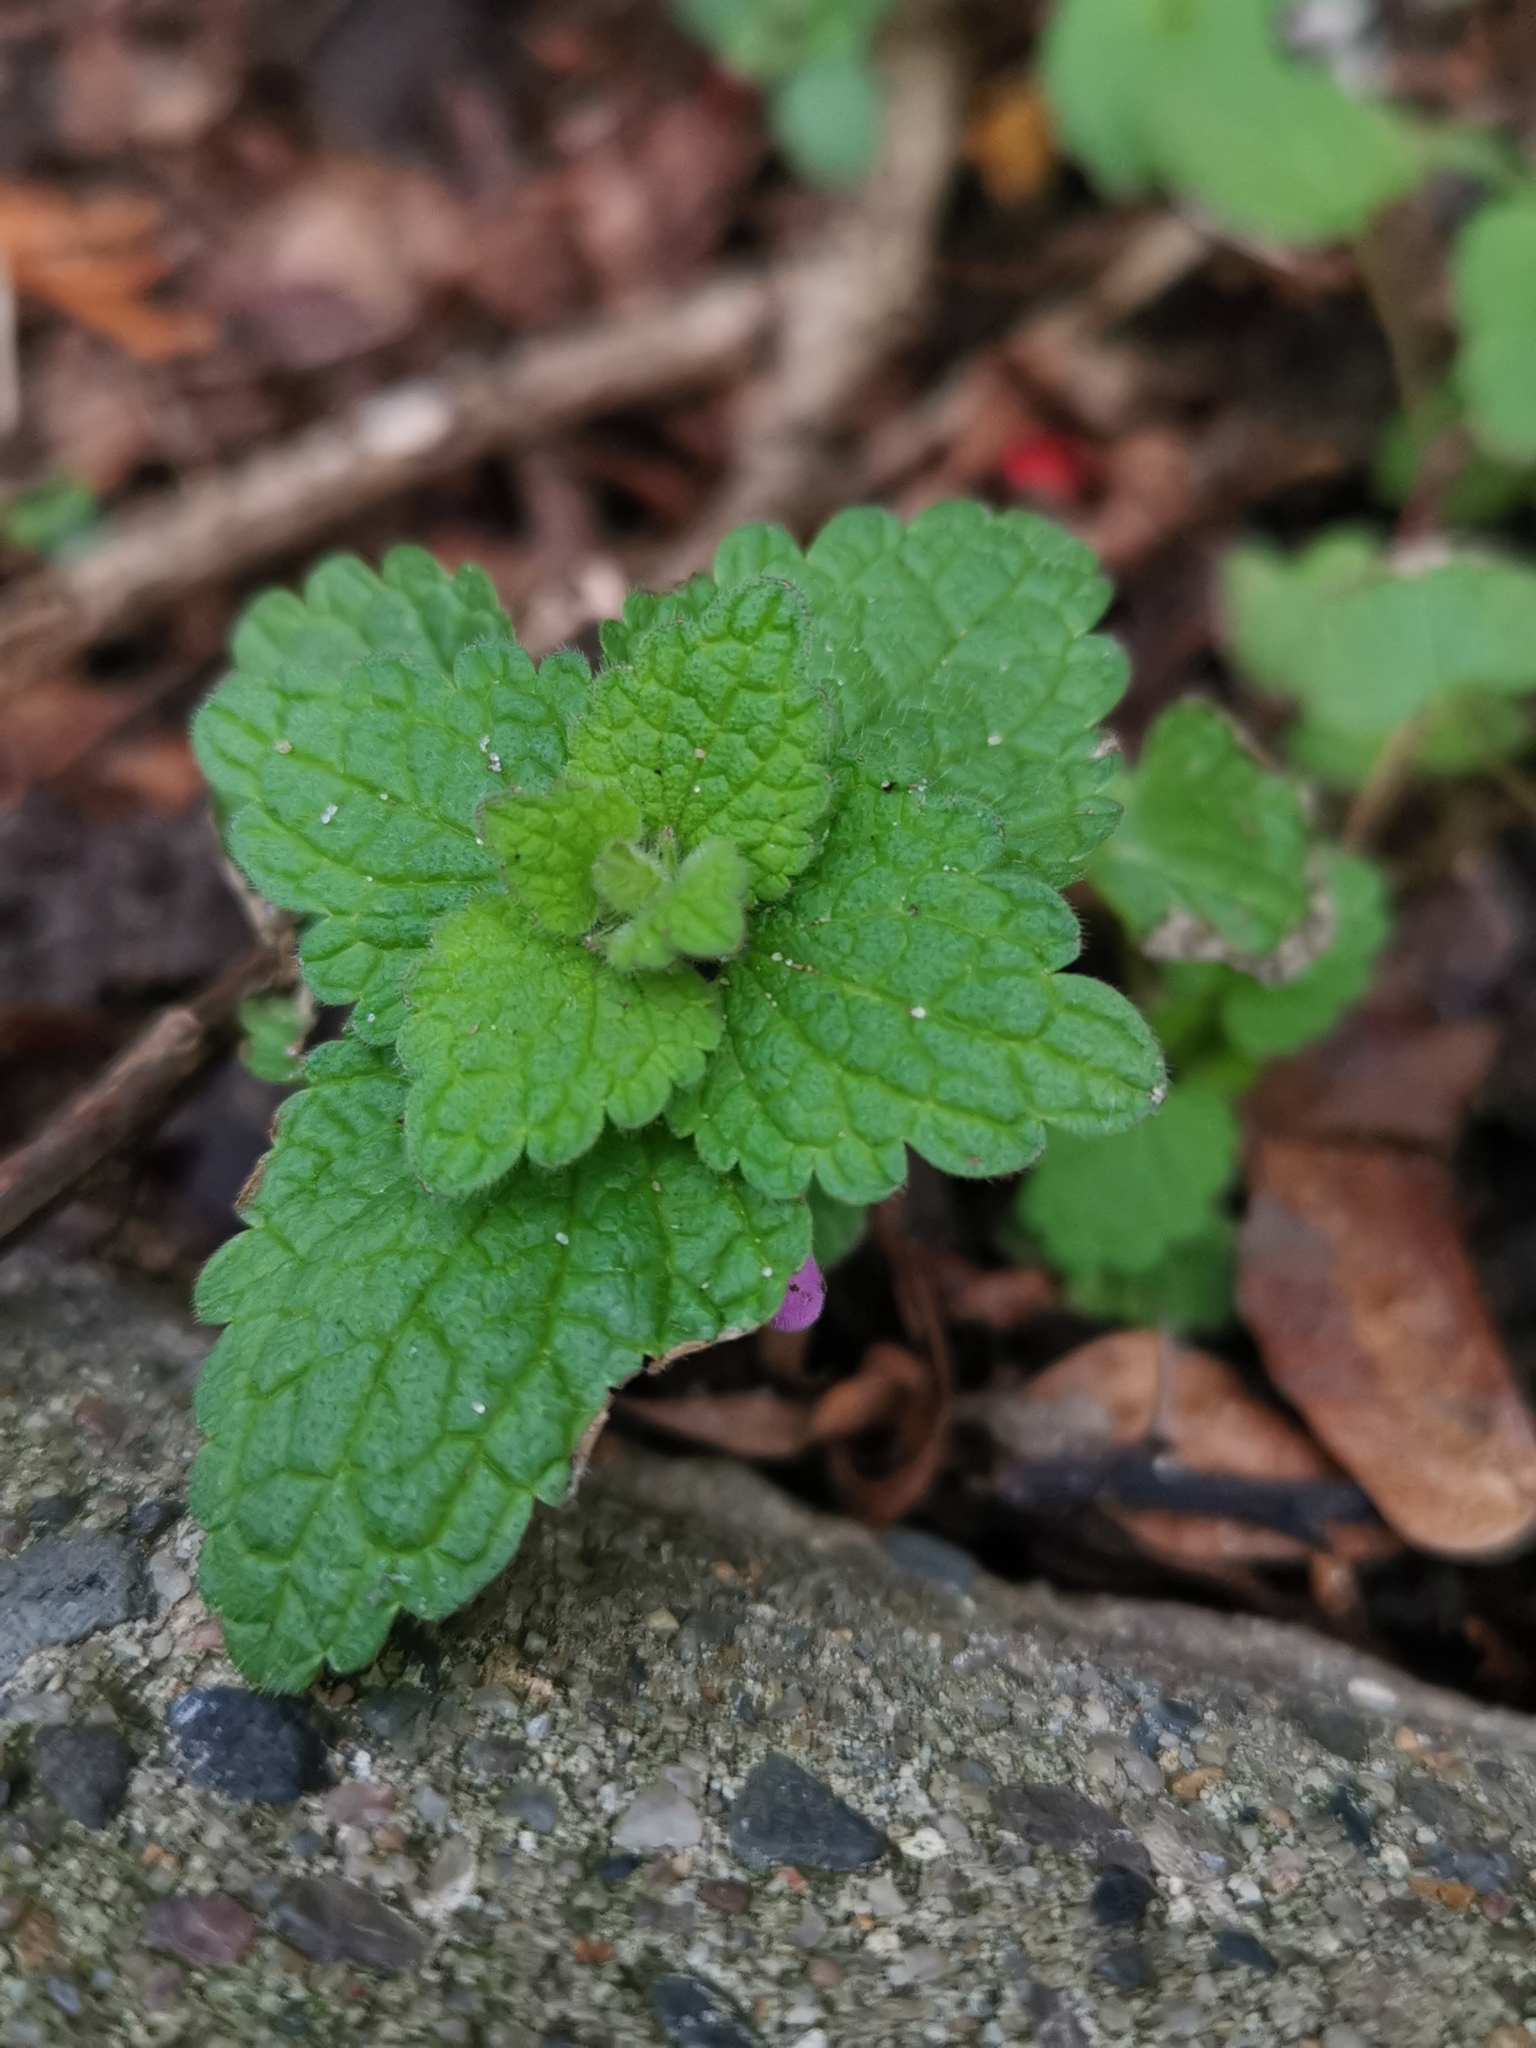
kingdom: Plantae
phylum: Tracheophyta
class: Magnoliopsida
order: Lamiales
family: Lamiaceae
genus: Lamium
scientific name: Lamium purpureum
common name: Red dead-nettle
